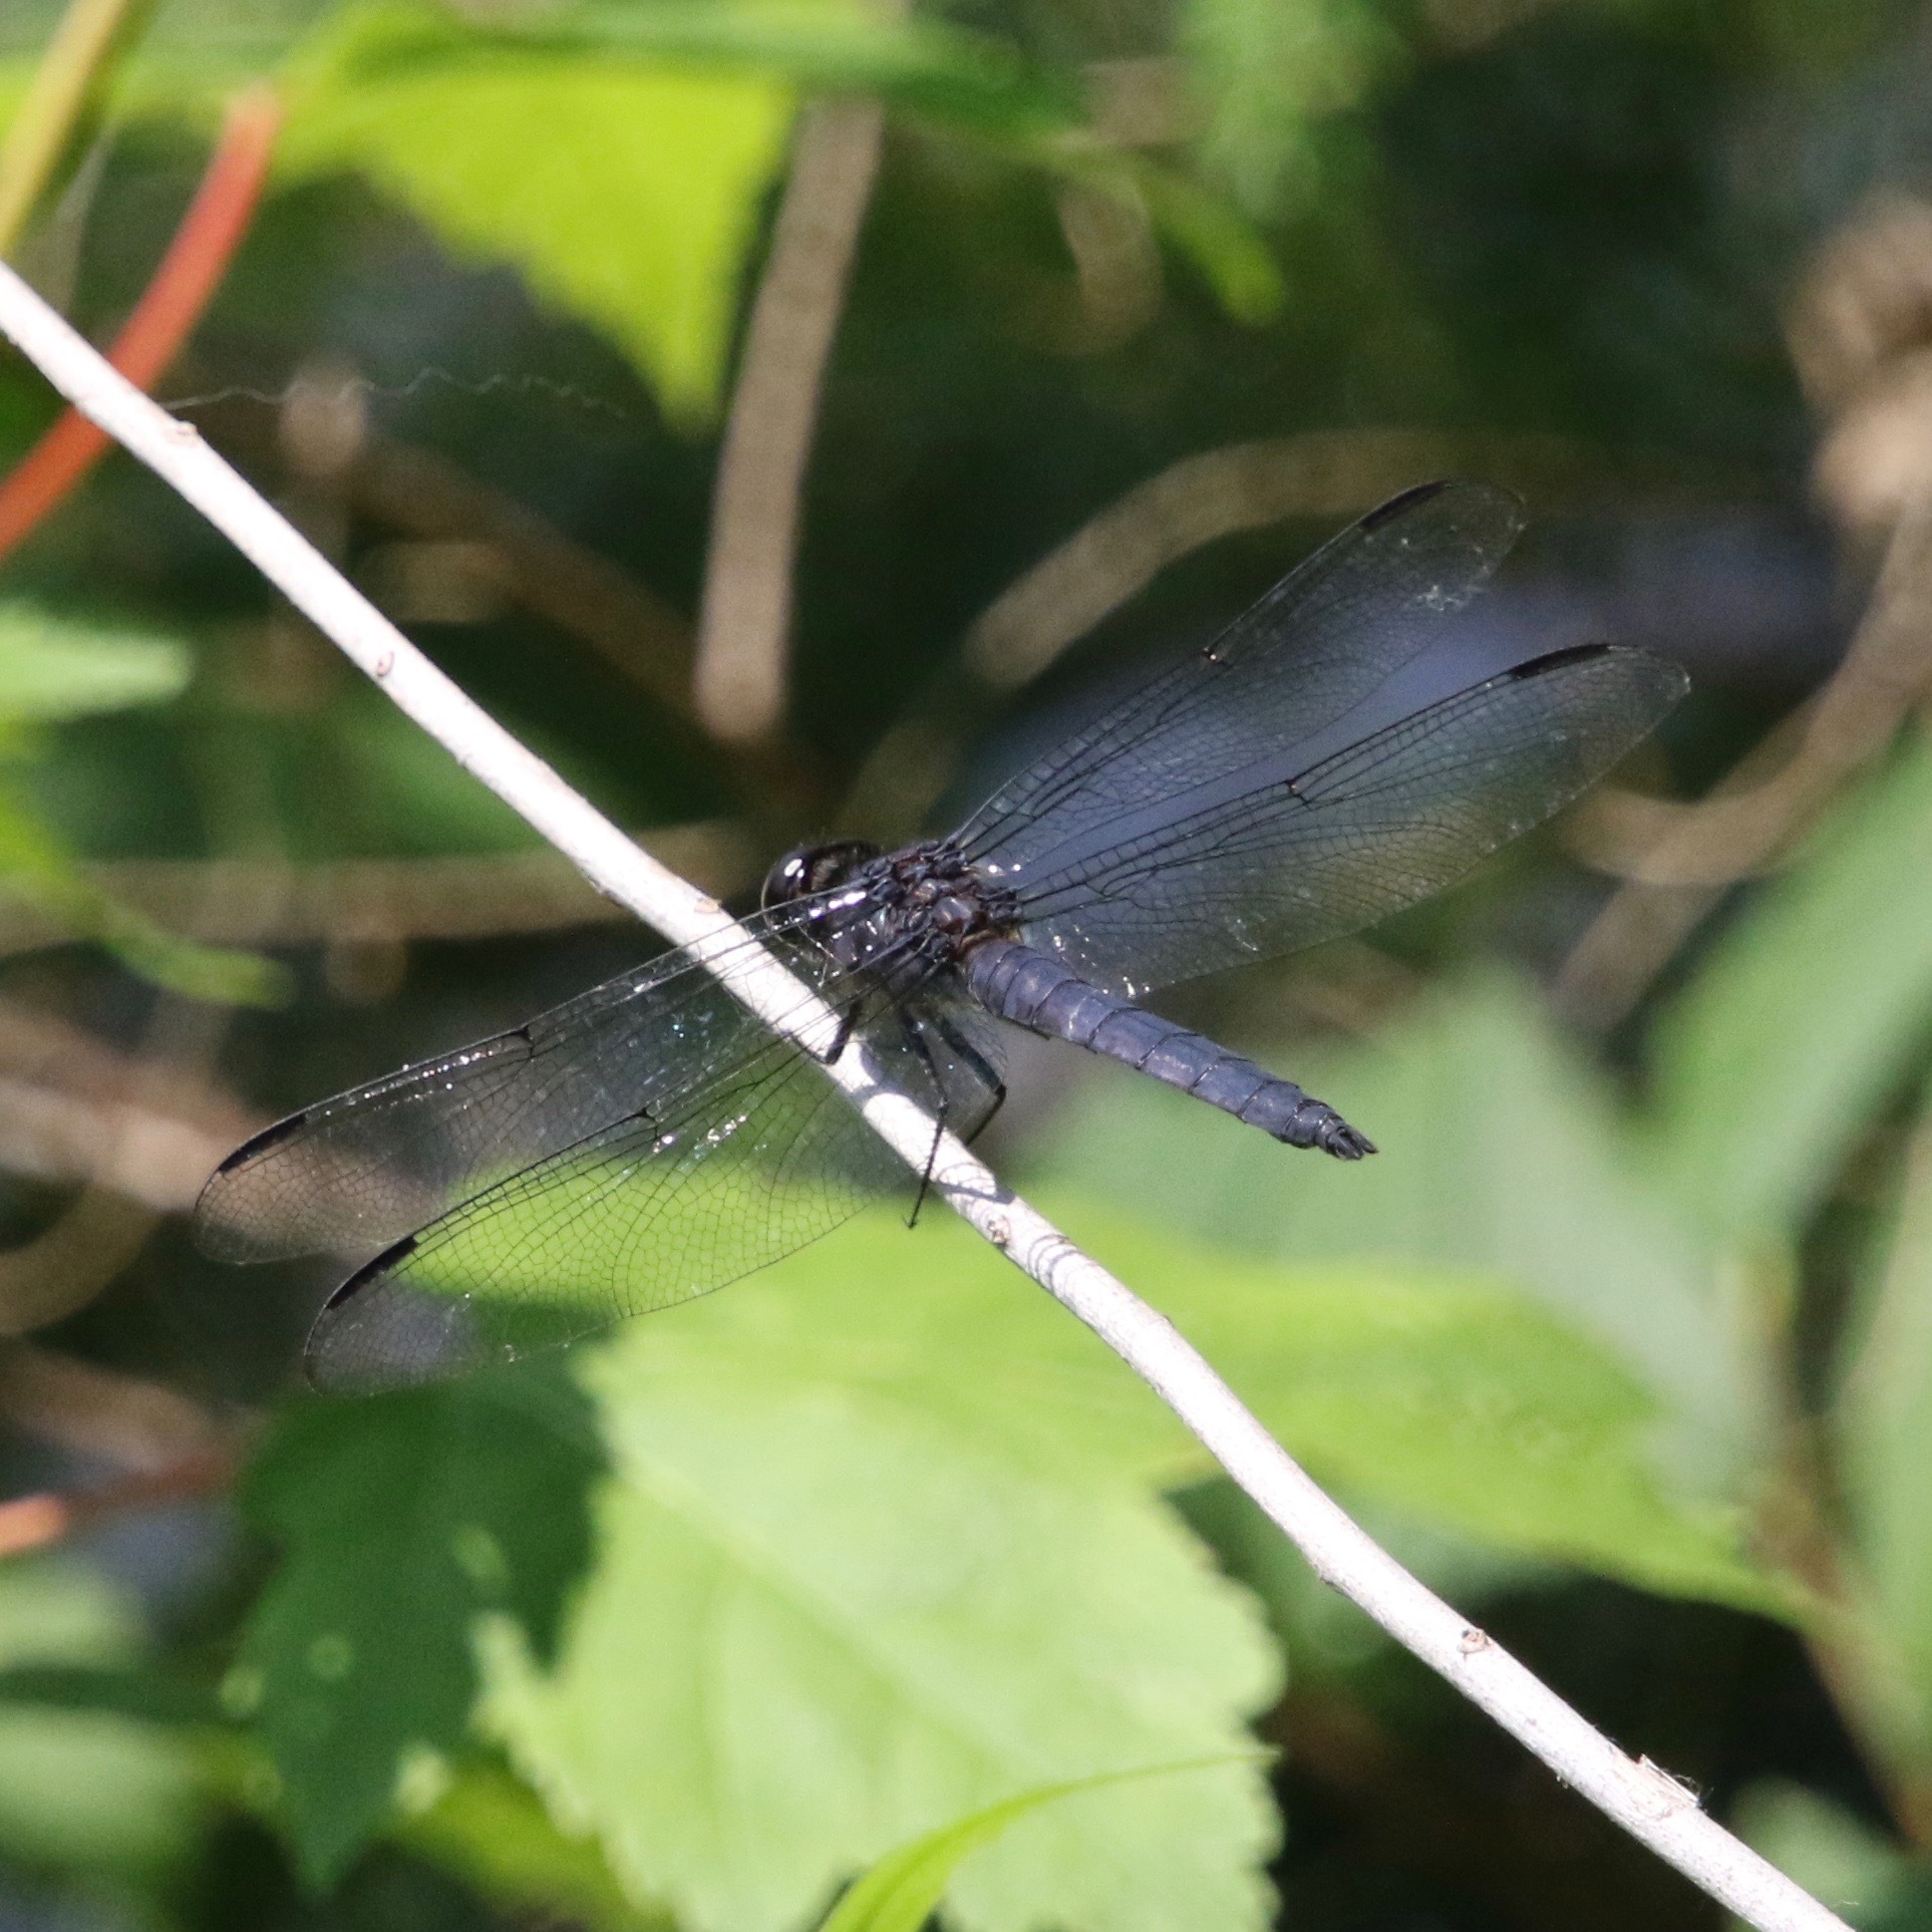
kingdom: Animalia
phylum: Arthropoda
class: Insecta
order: Odonata
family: Libellulidae
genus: Libellula
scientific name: Libellula incesta
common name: Slaty skimmer
